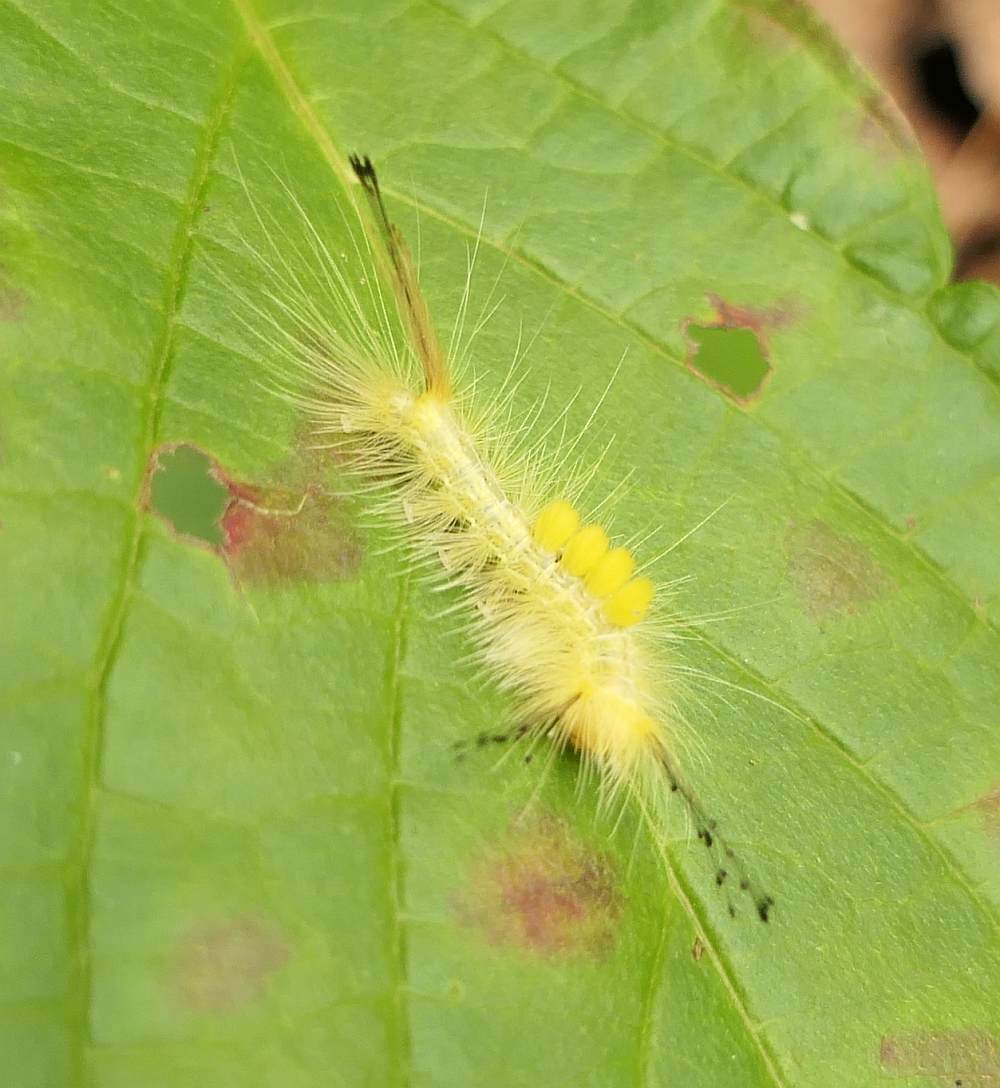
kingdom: Animalia
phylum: Arthropoda
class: Insecta
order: Lepidoptera
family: Erebidae
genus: Orgyia
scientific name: Orgyia definita
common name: Definite tussock moth
